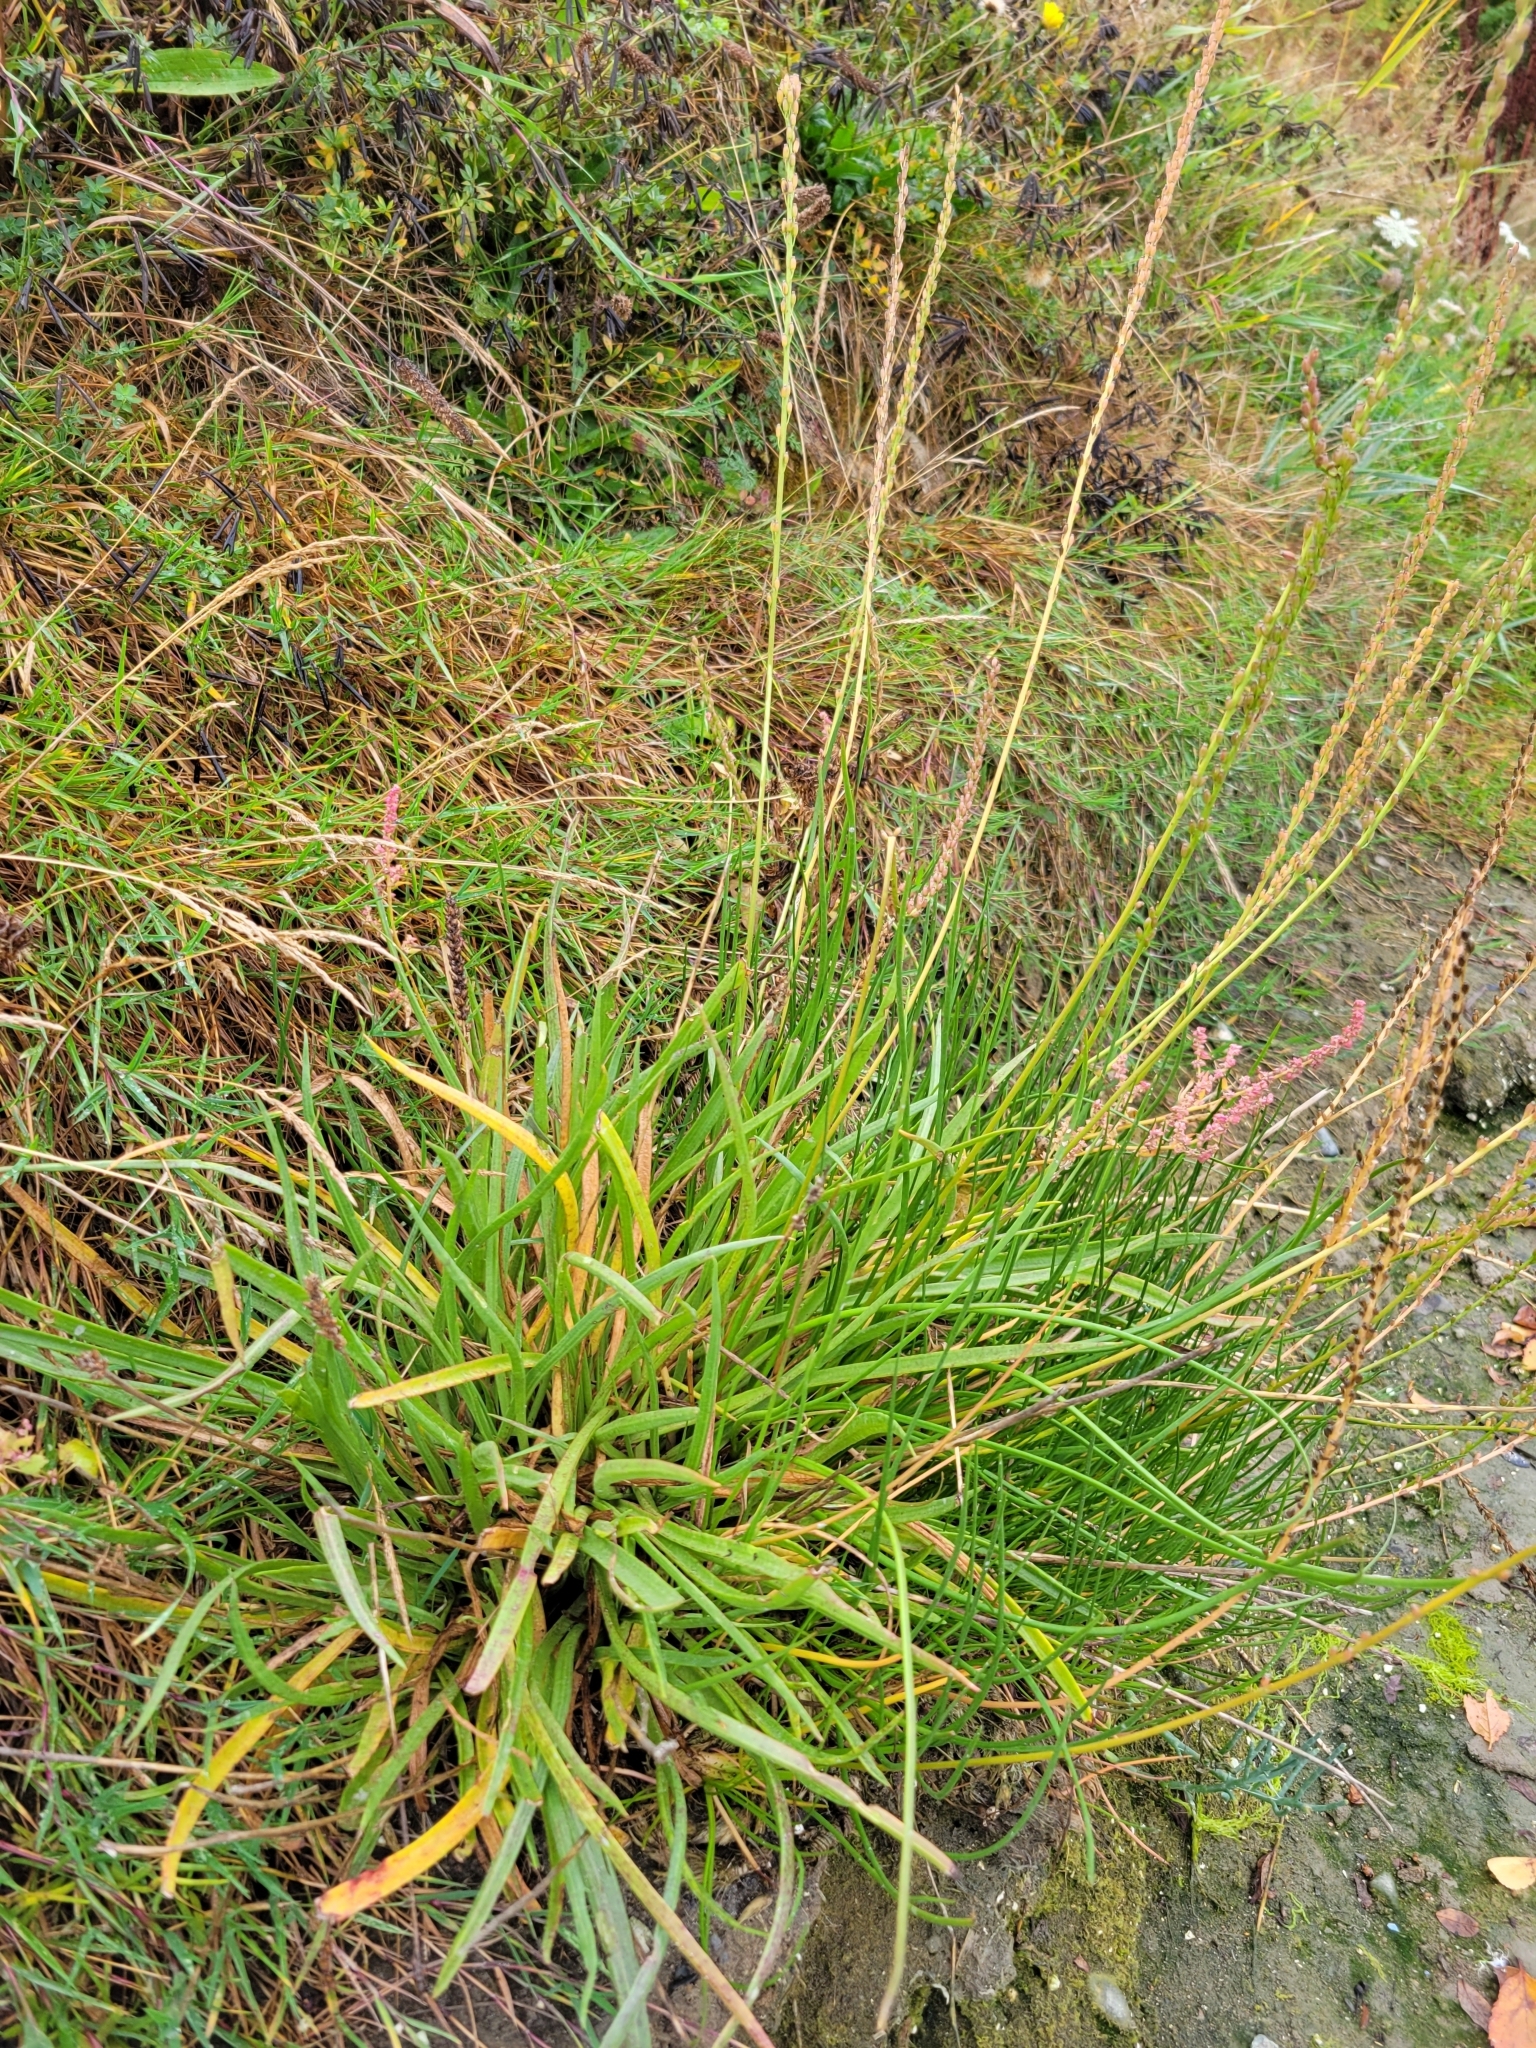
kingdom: Plantae
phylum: Tracheophyta
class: Liliopsida
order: Alismatales
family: Juncaginaceae
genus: Triglochin
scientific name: Triglochin maritima
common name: Sea arrowgrass
